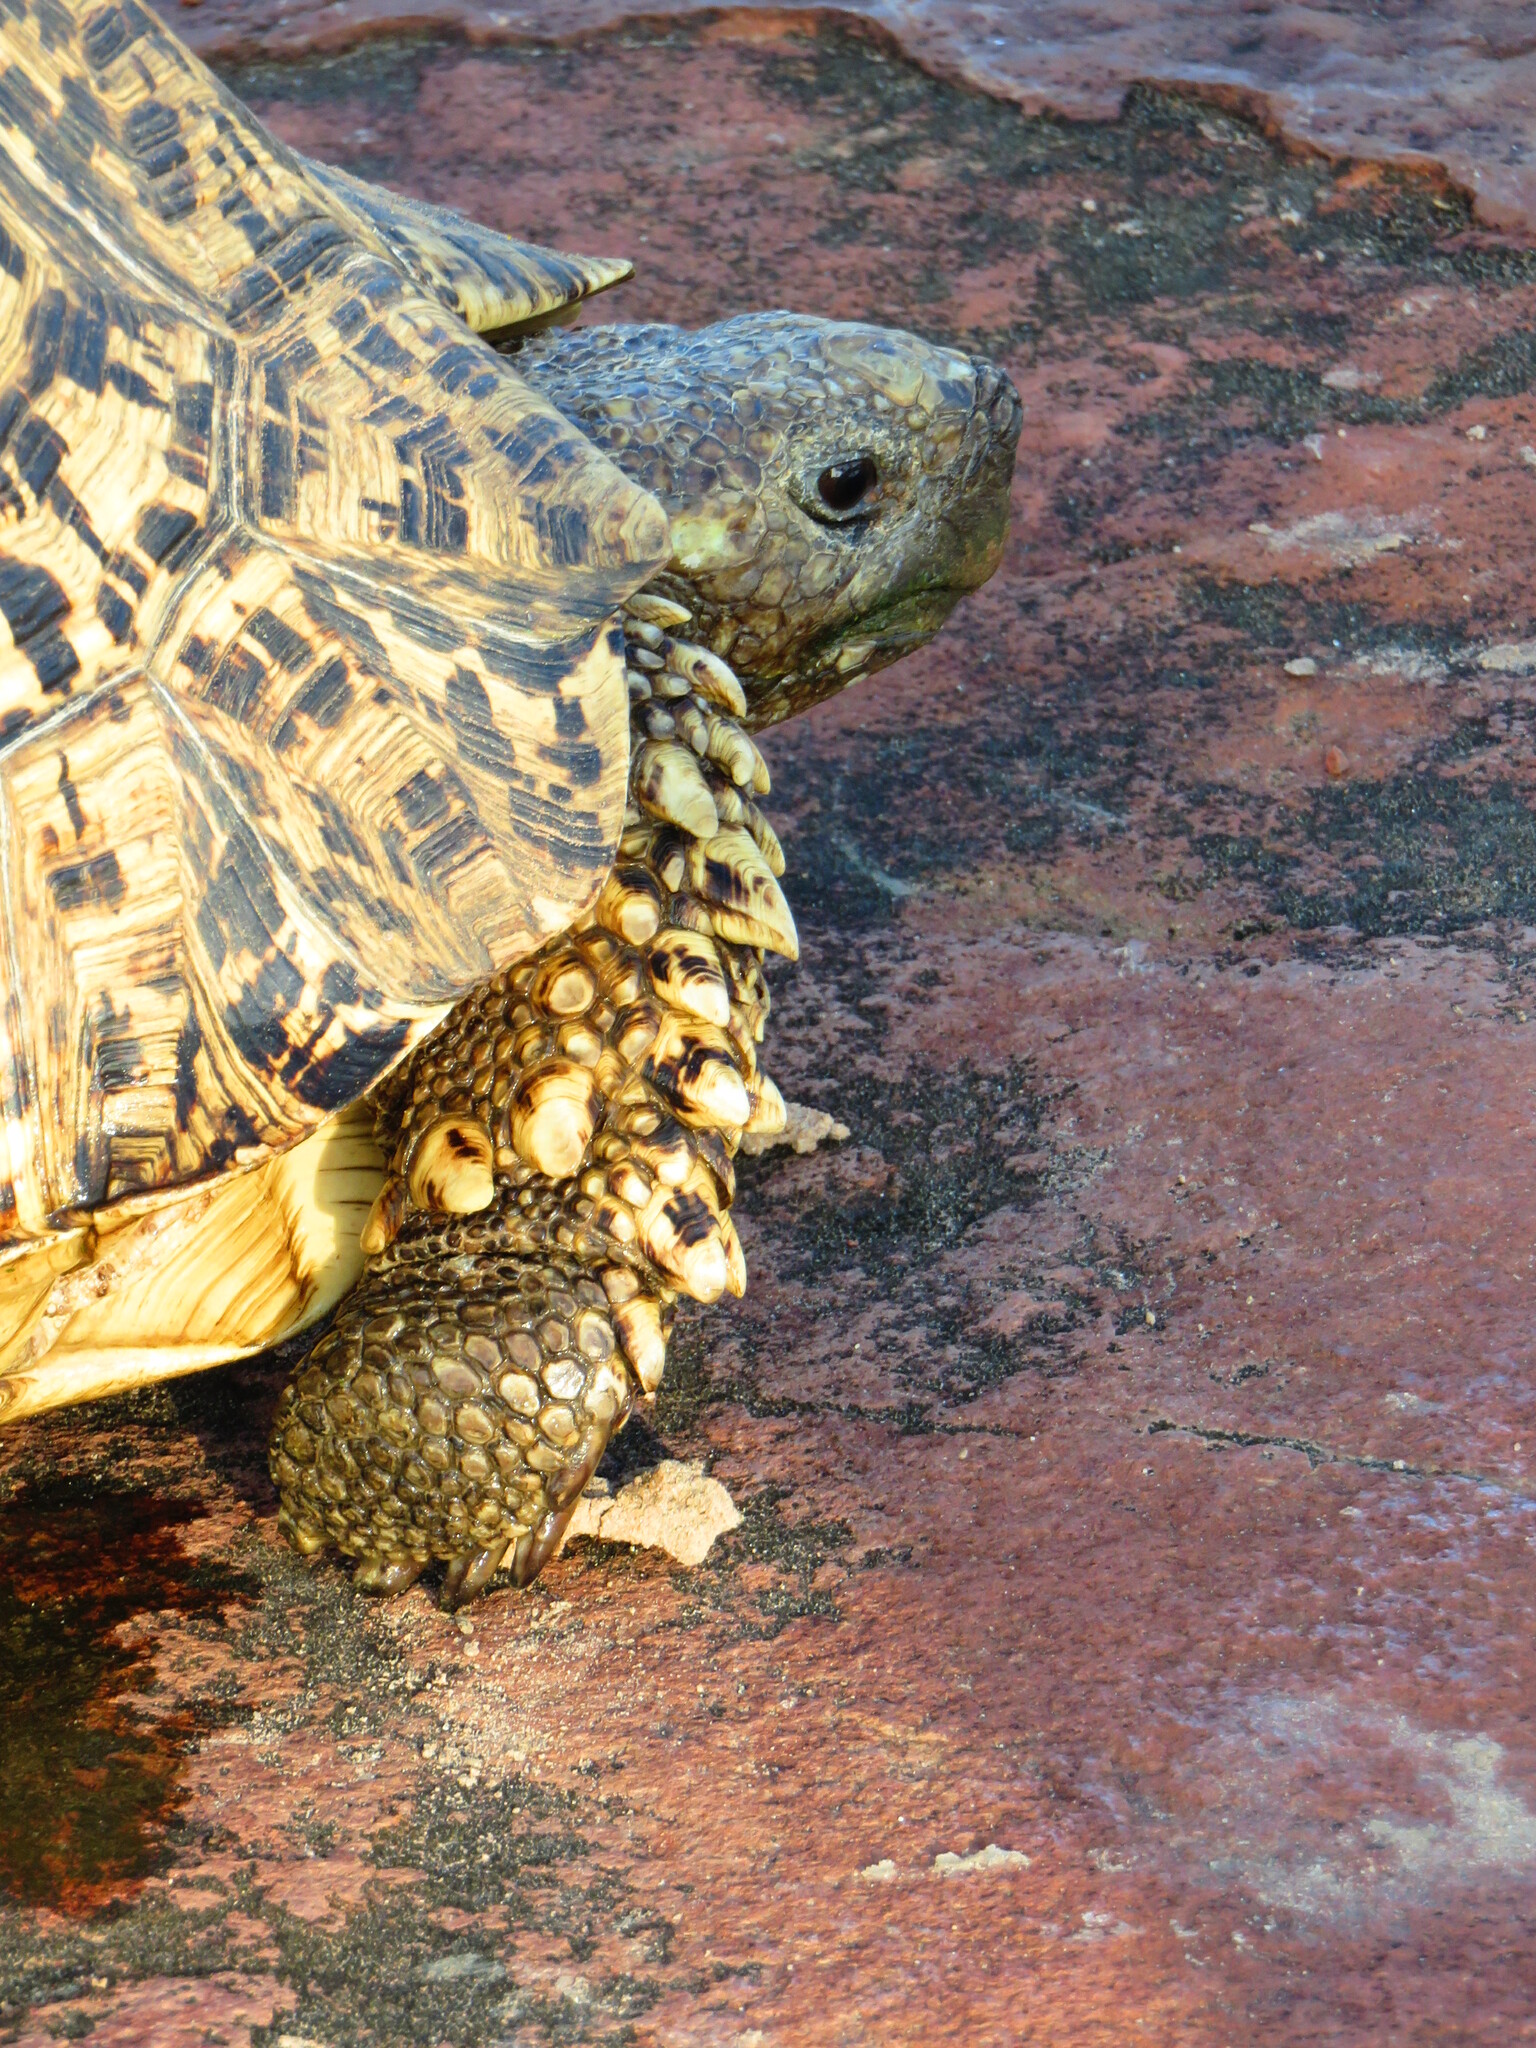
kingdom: Animalia
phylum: Chordata
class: Testudines
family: Testudinidae
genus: Stigmochelys
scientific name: Stigmochelys pardalis
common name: Leopard tortoise
